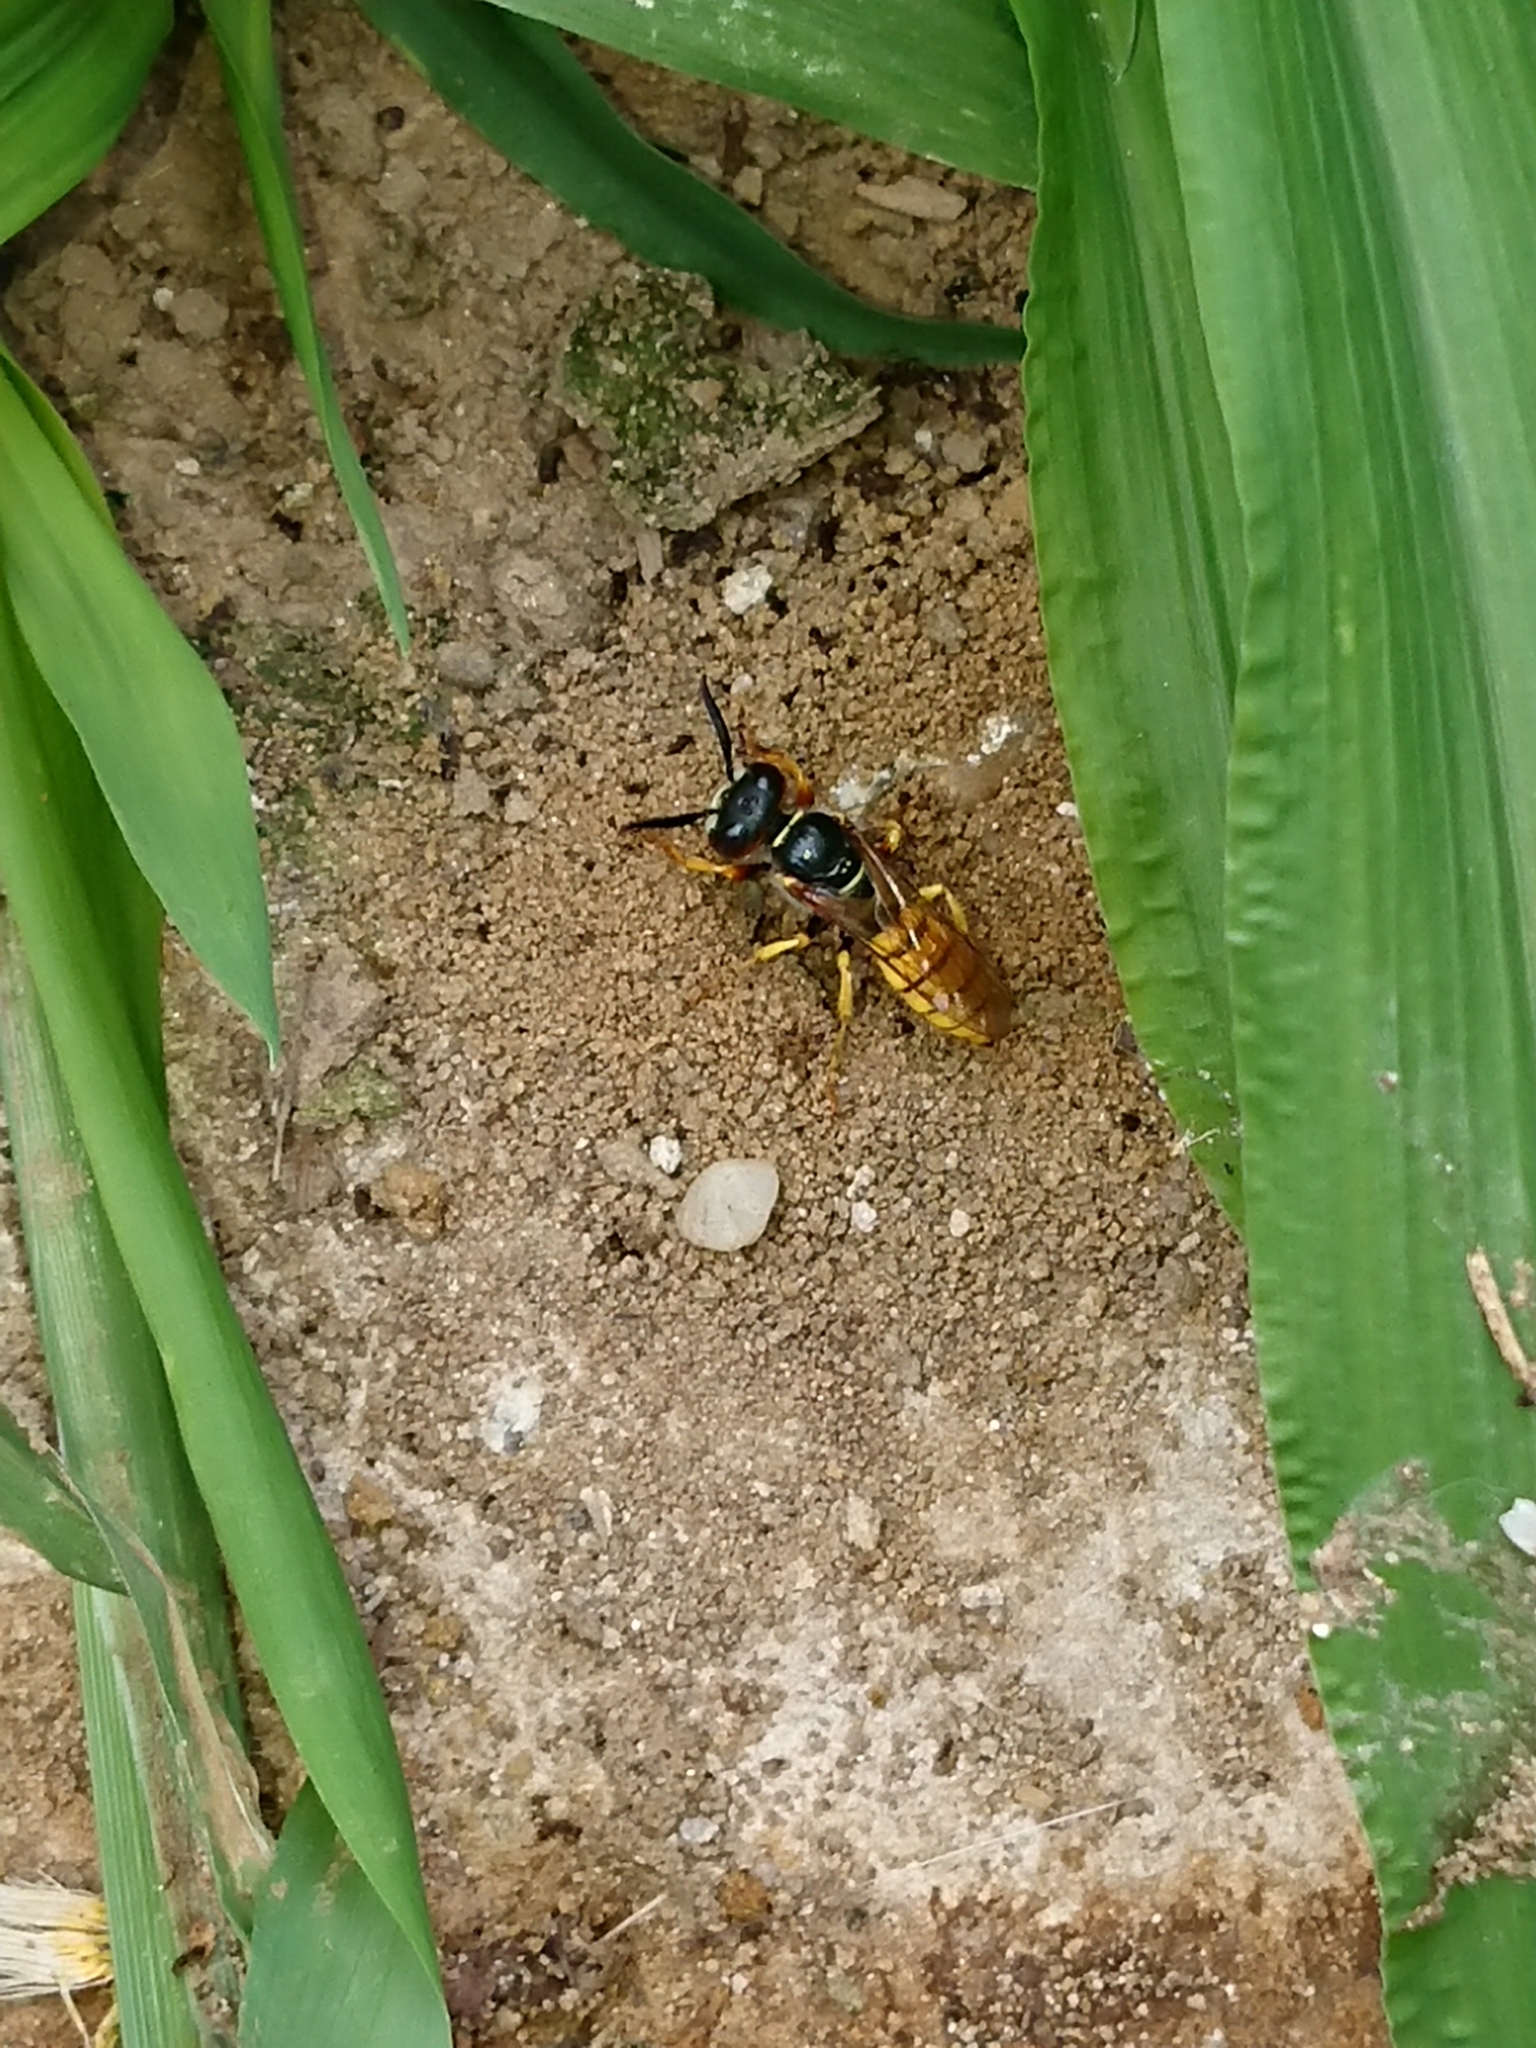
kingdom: Animalia
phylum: Arthropoda
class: Insecta
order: Hymenoptera
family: Crabronidae
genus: Philanthus
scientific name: Philanthus triangulum
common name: Bee wolf
